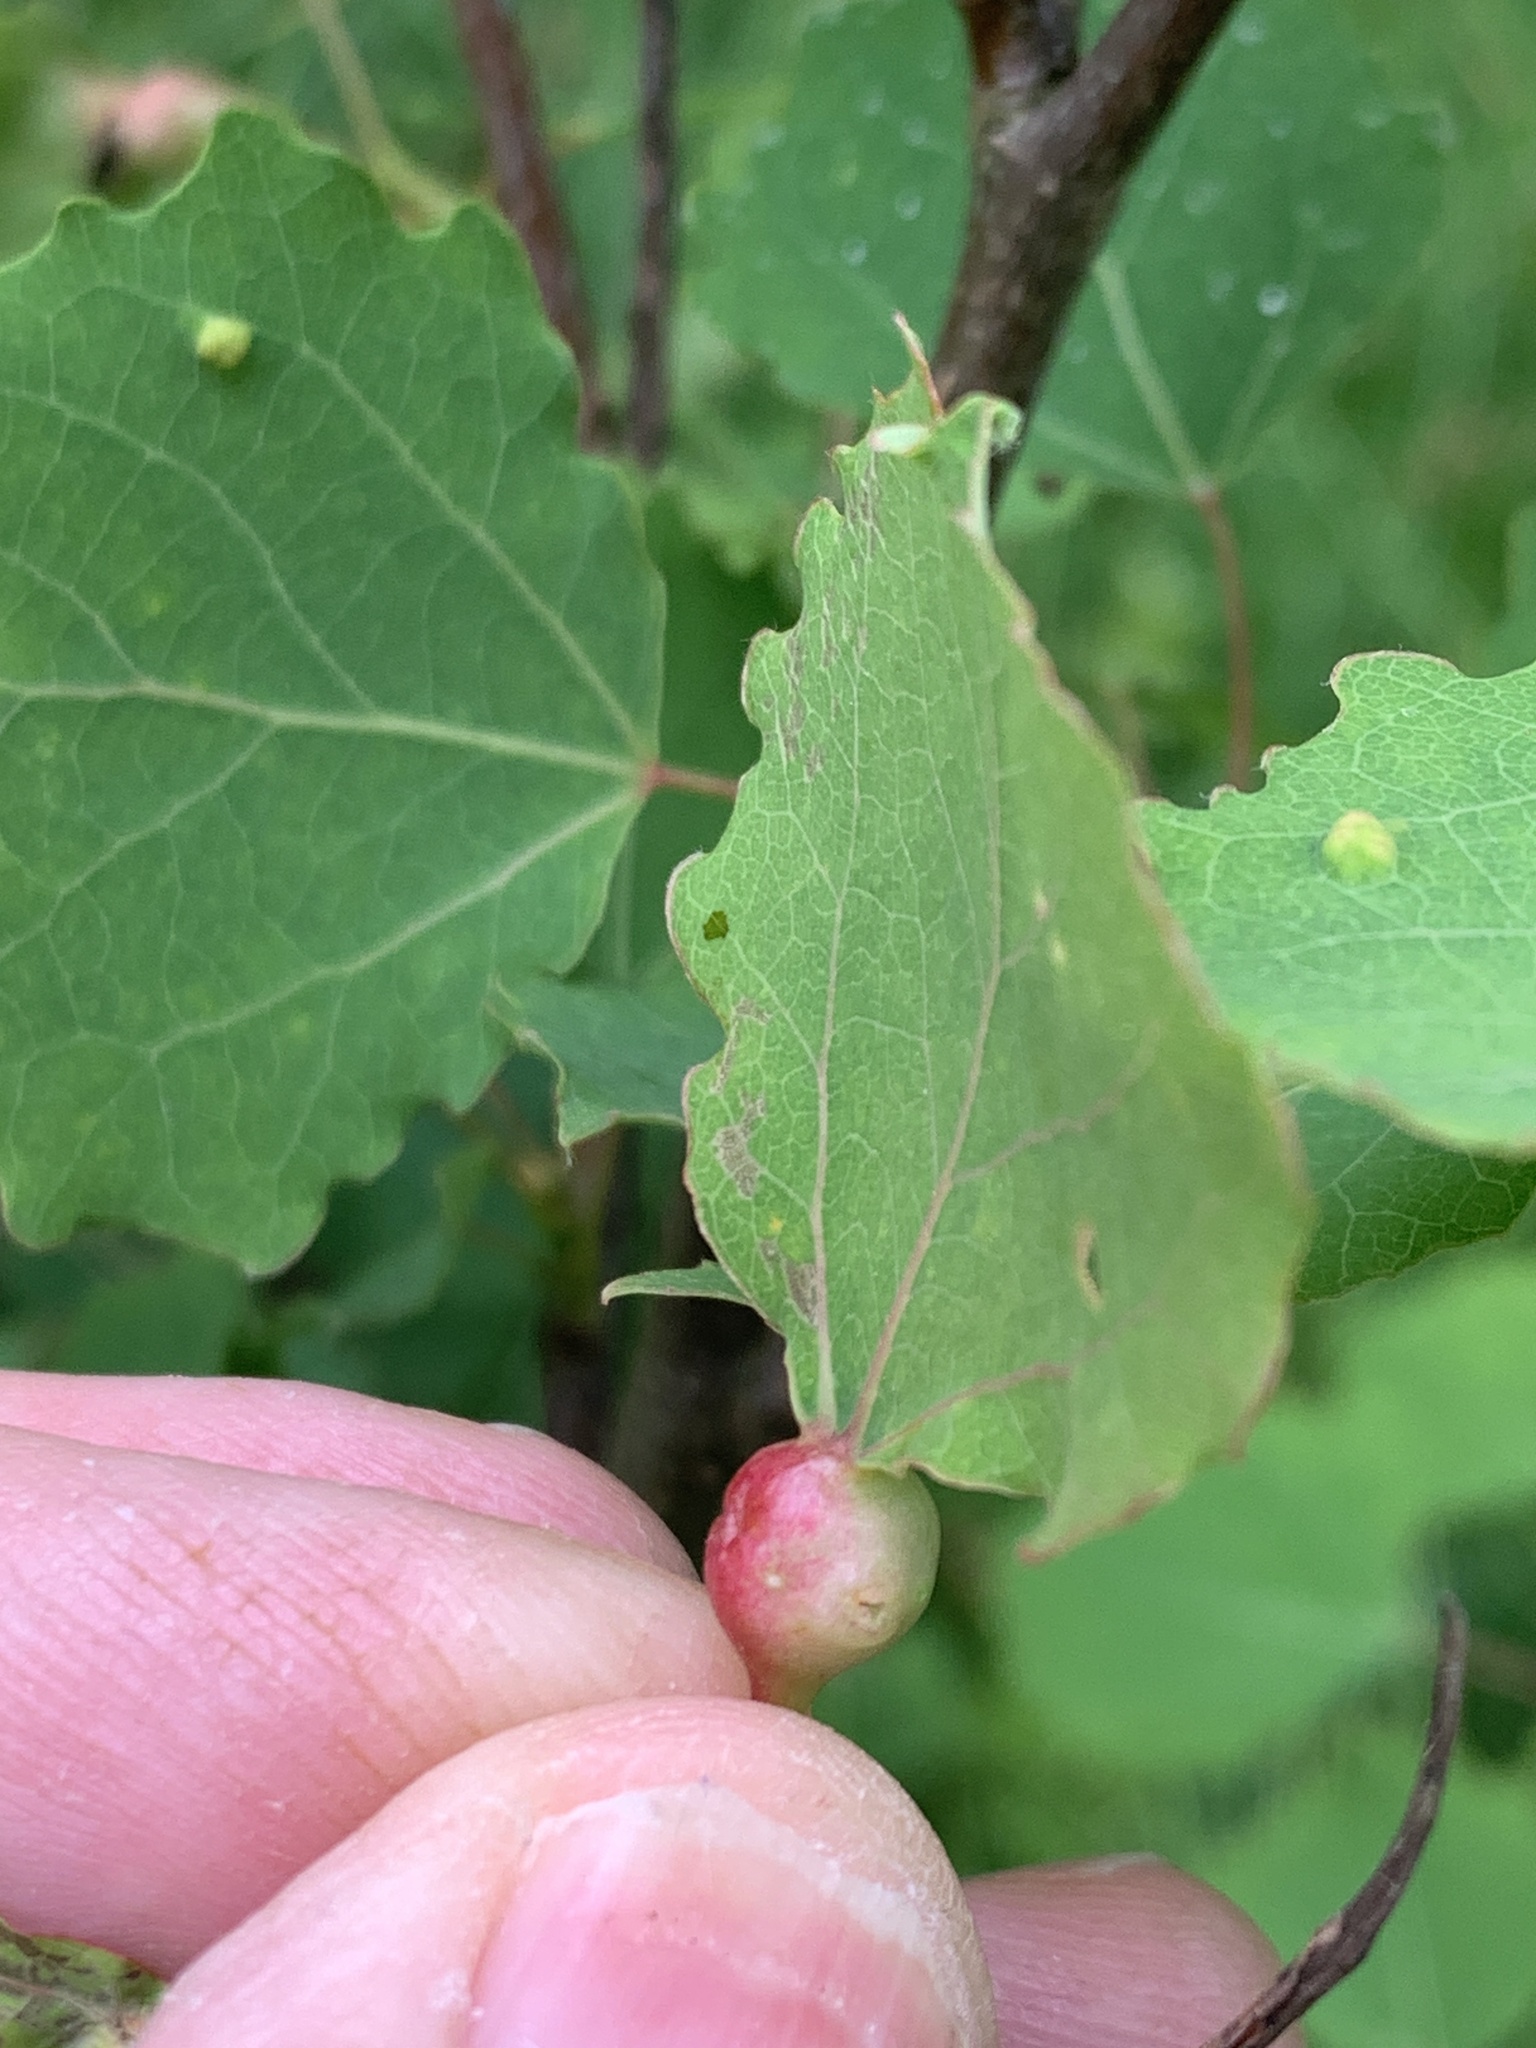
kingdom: Animalia
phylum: Arthropoda
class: Insecta
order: Diptera
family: Cecidomyiidae
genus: Contarinia
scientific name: Contarinia petioli
